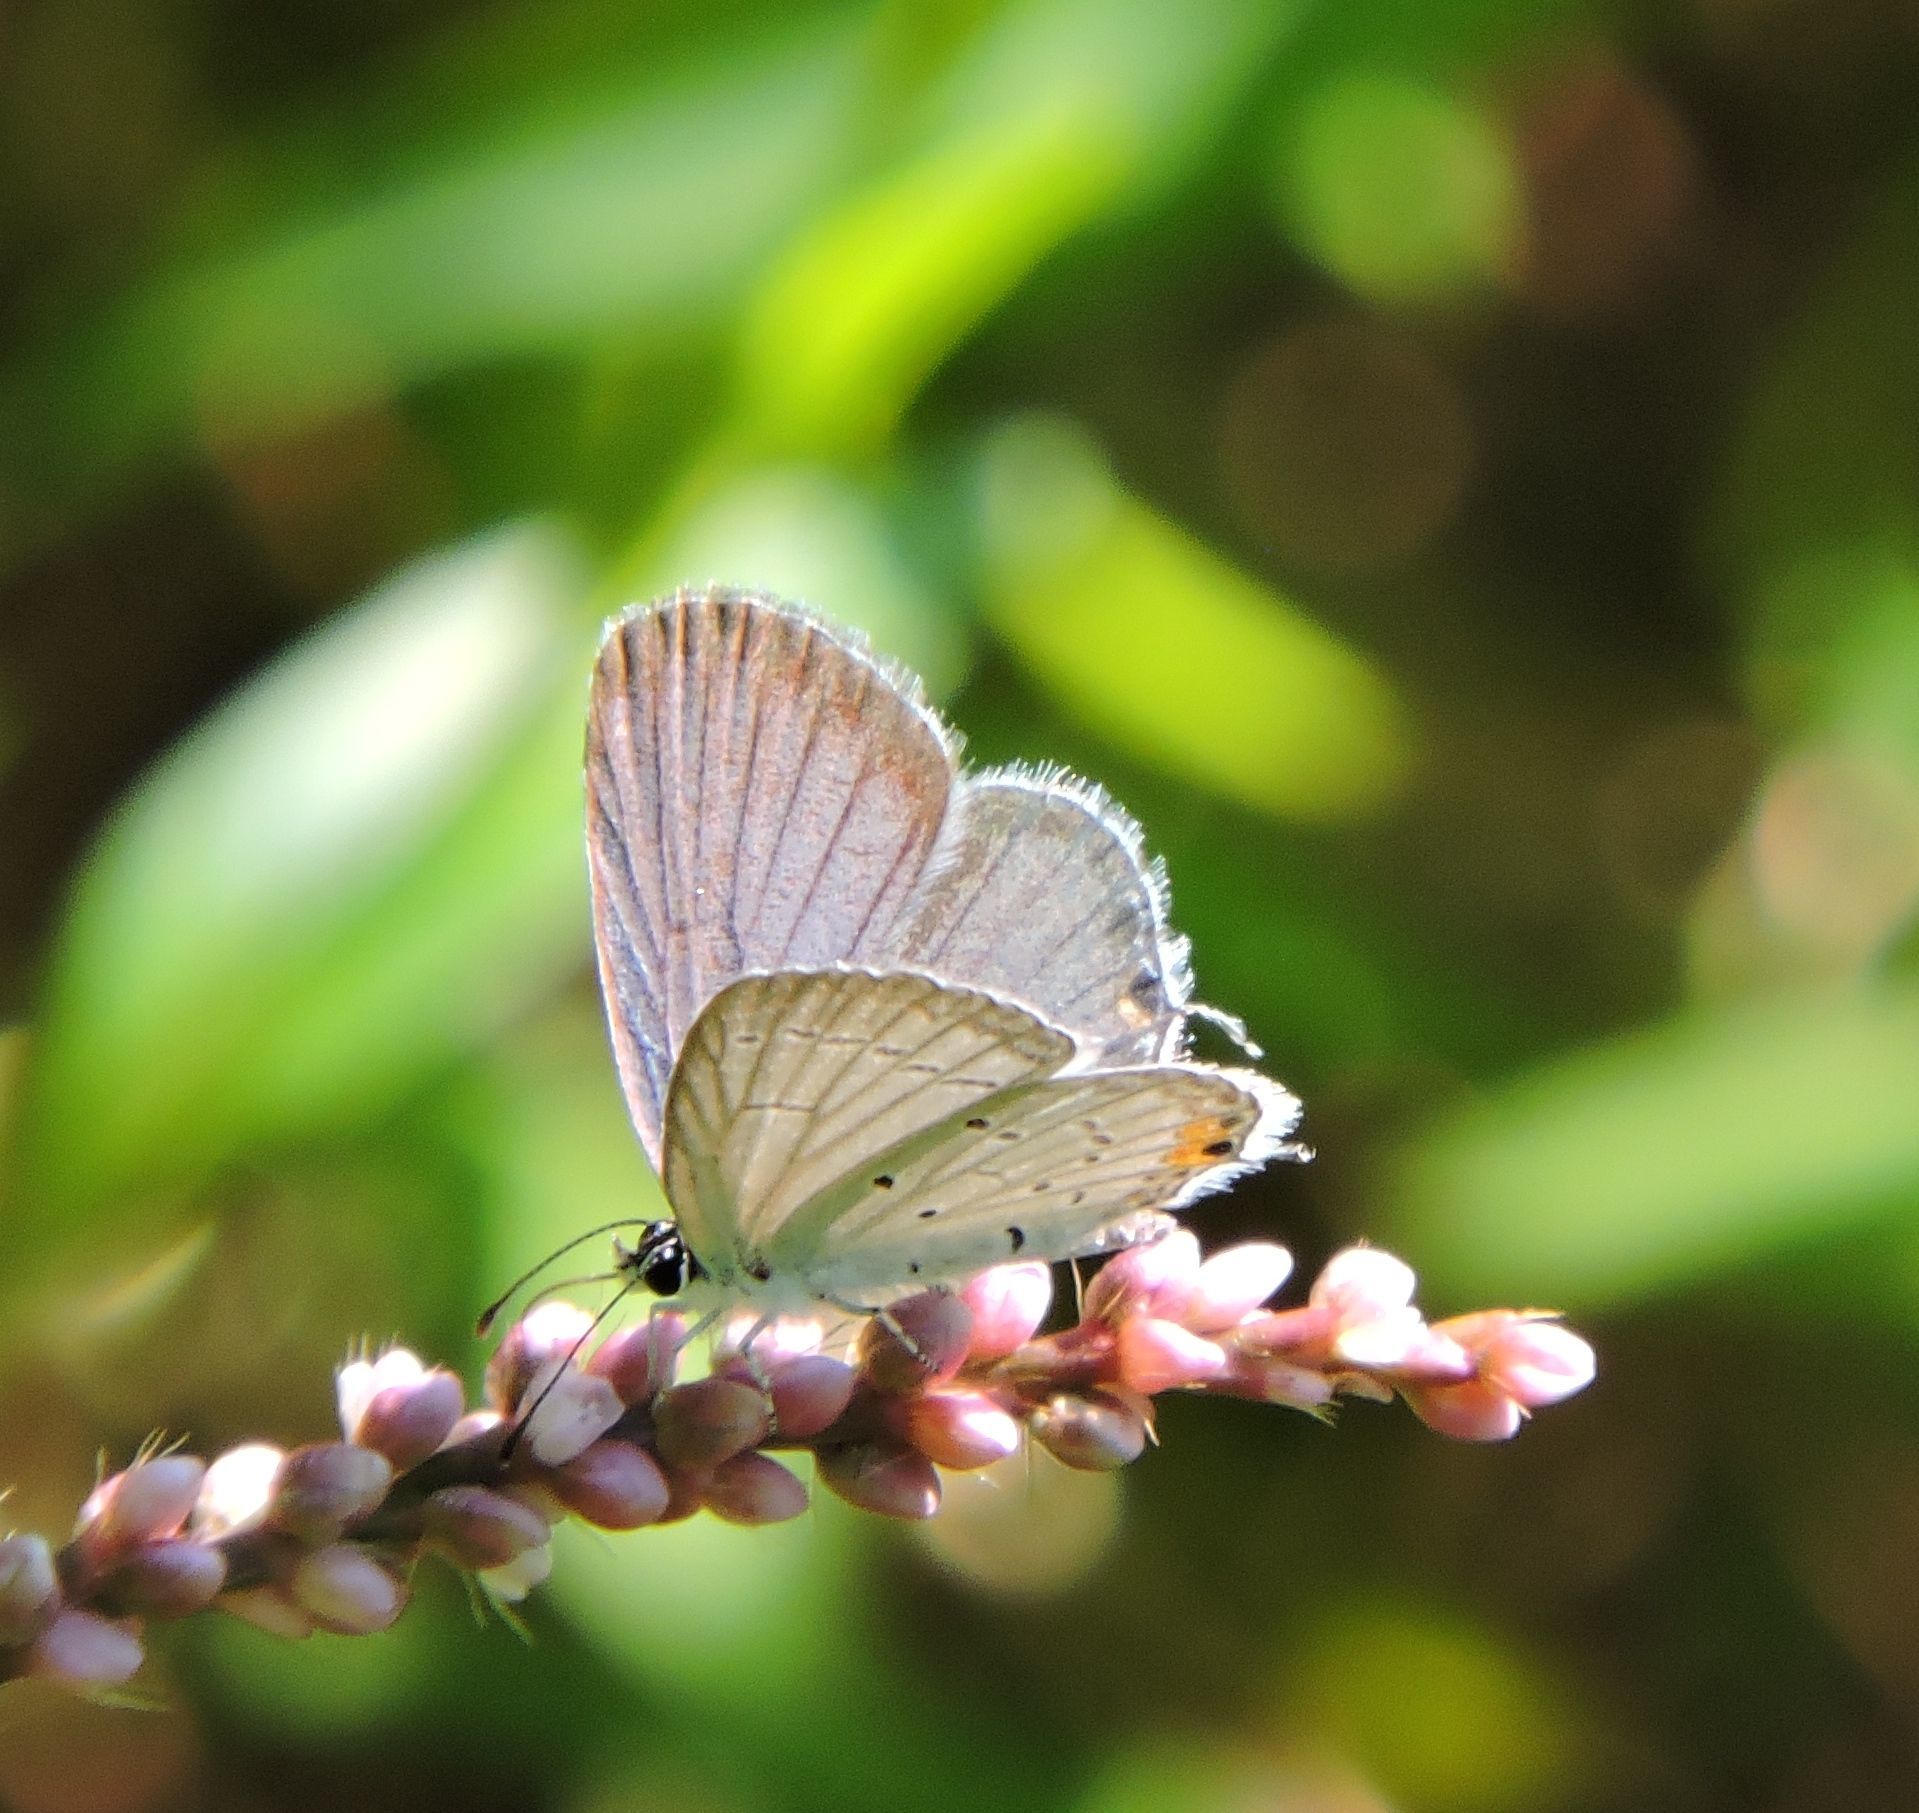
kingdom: Animalia
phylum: Arthropoda
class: Insecta
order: Lepidoptera
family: Lycaenidae
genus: Elkalyce
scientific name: Elkalyce comyntas
